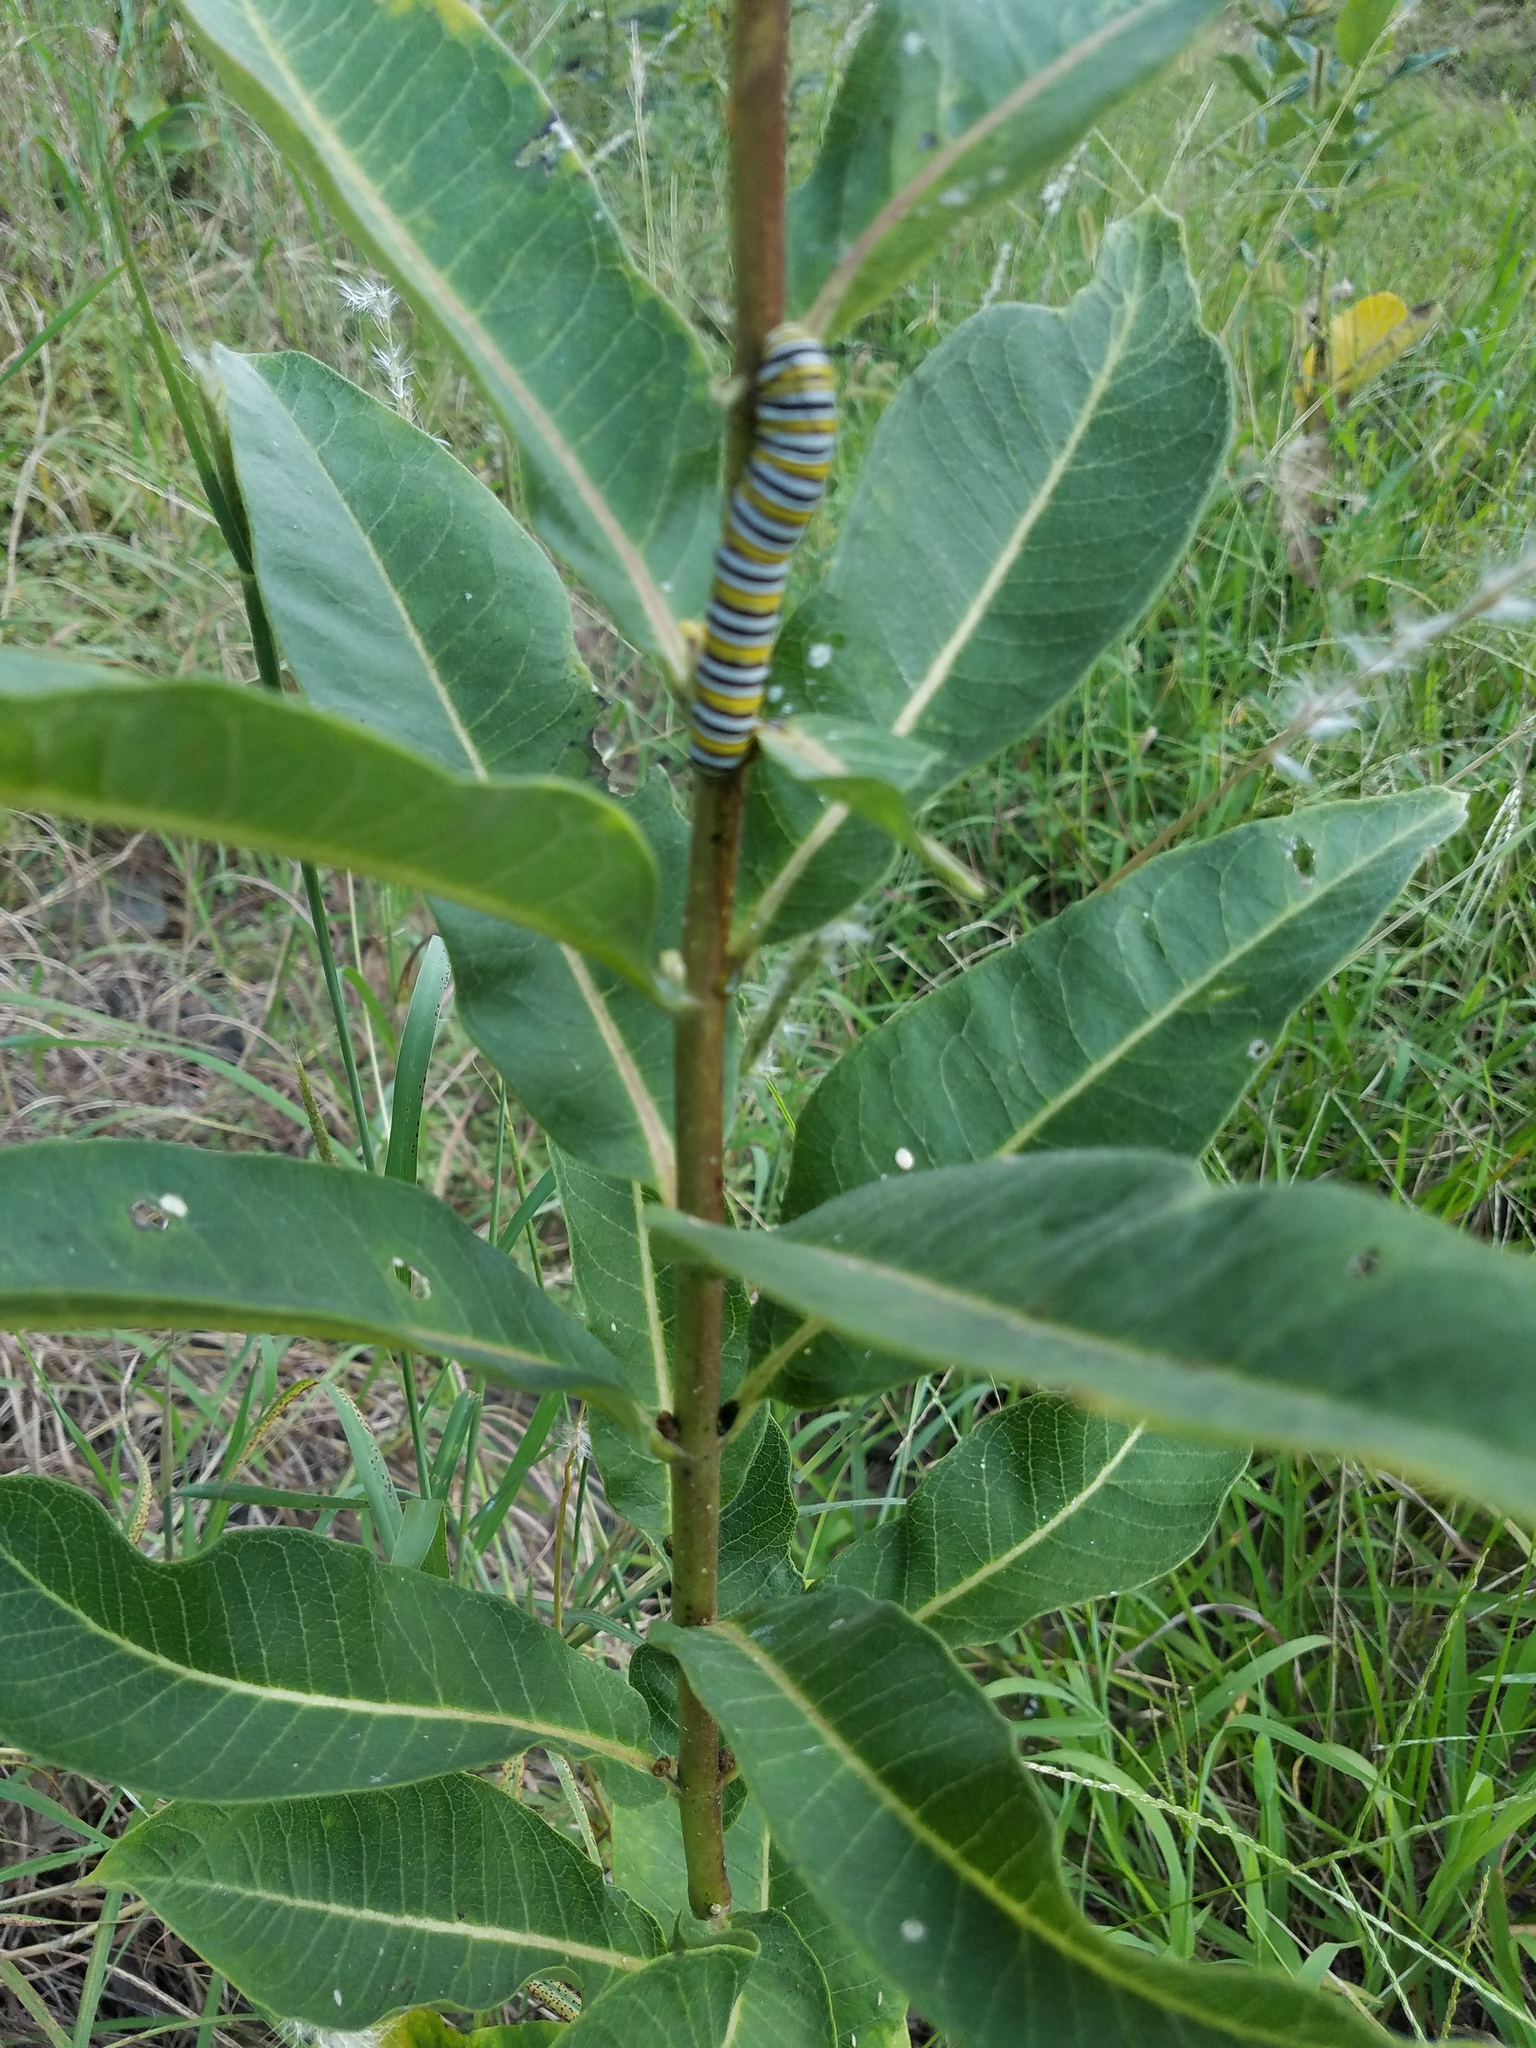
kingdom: Plantae
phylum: Tracheophyta
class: Magnoliopsida
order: Gentianales
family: Apocynaceae
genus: Asclepias
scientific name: Asclepias syriaca
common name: Common milkweed
